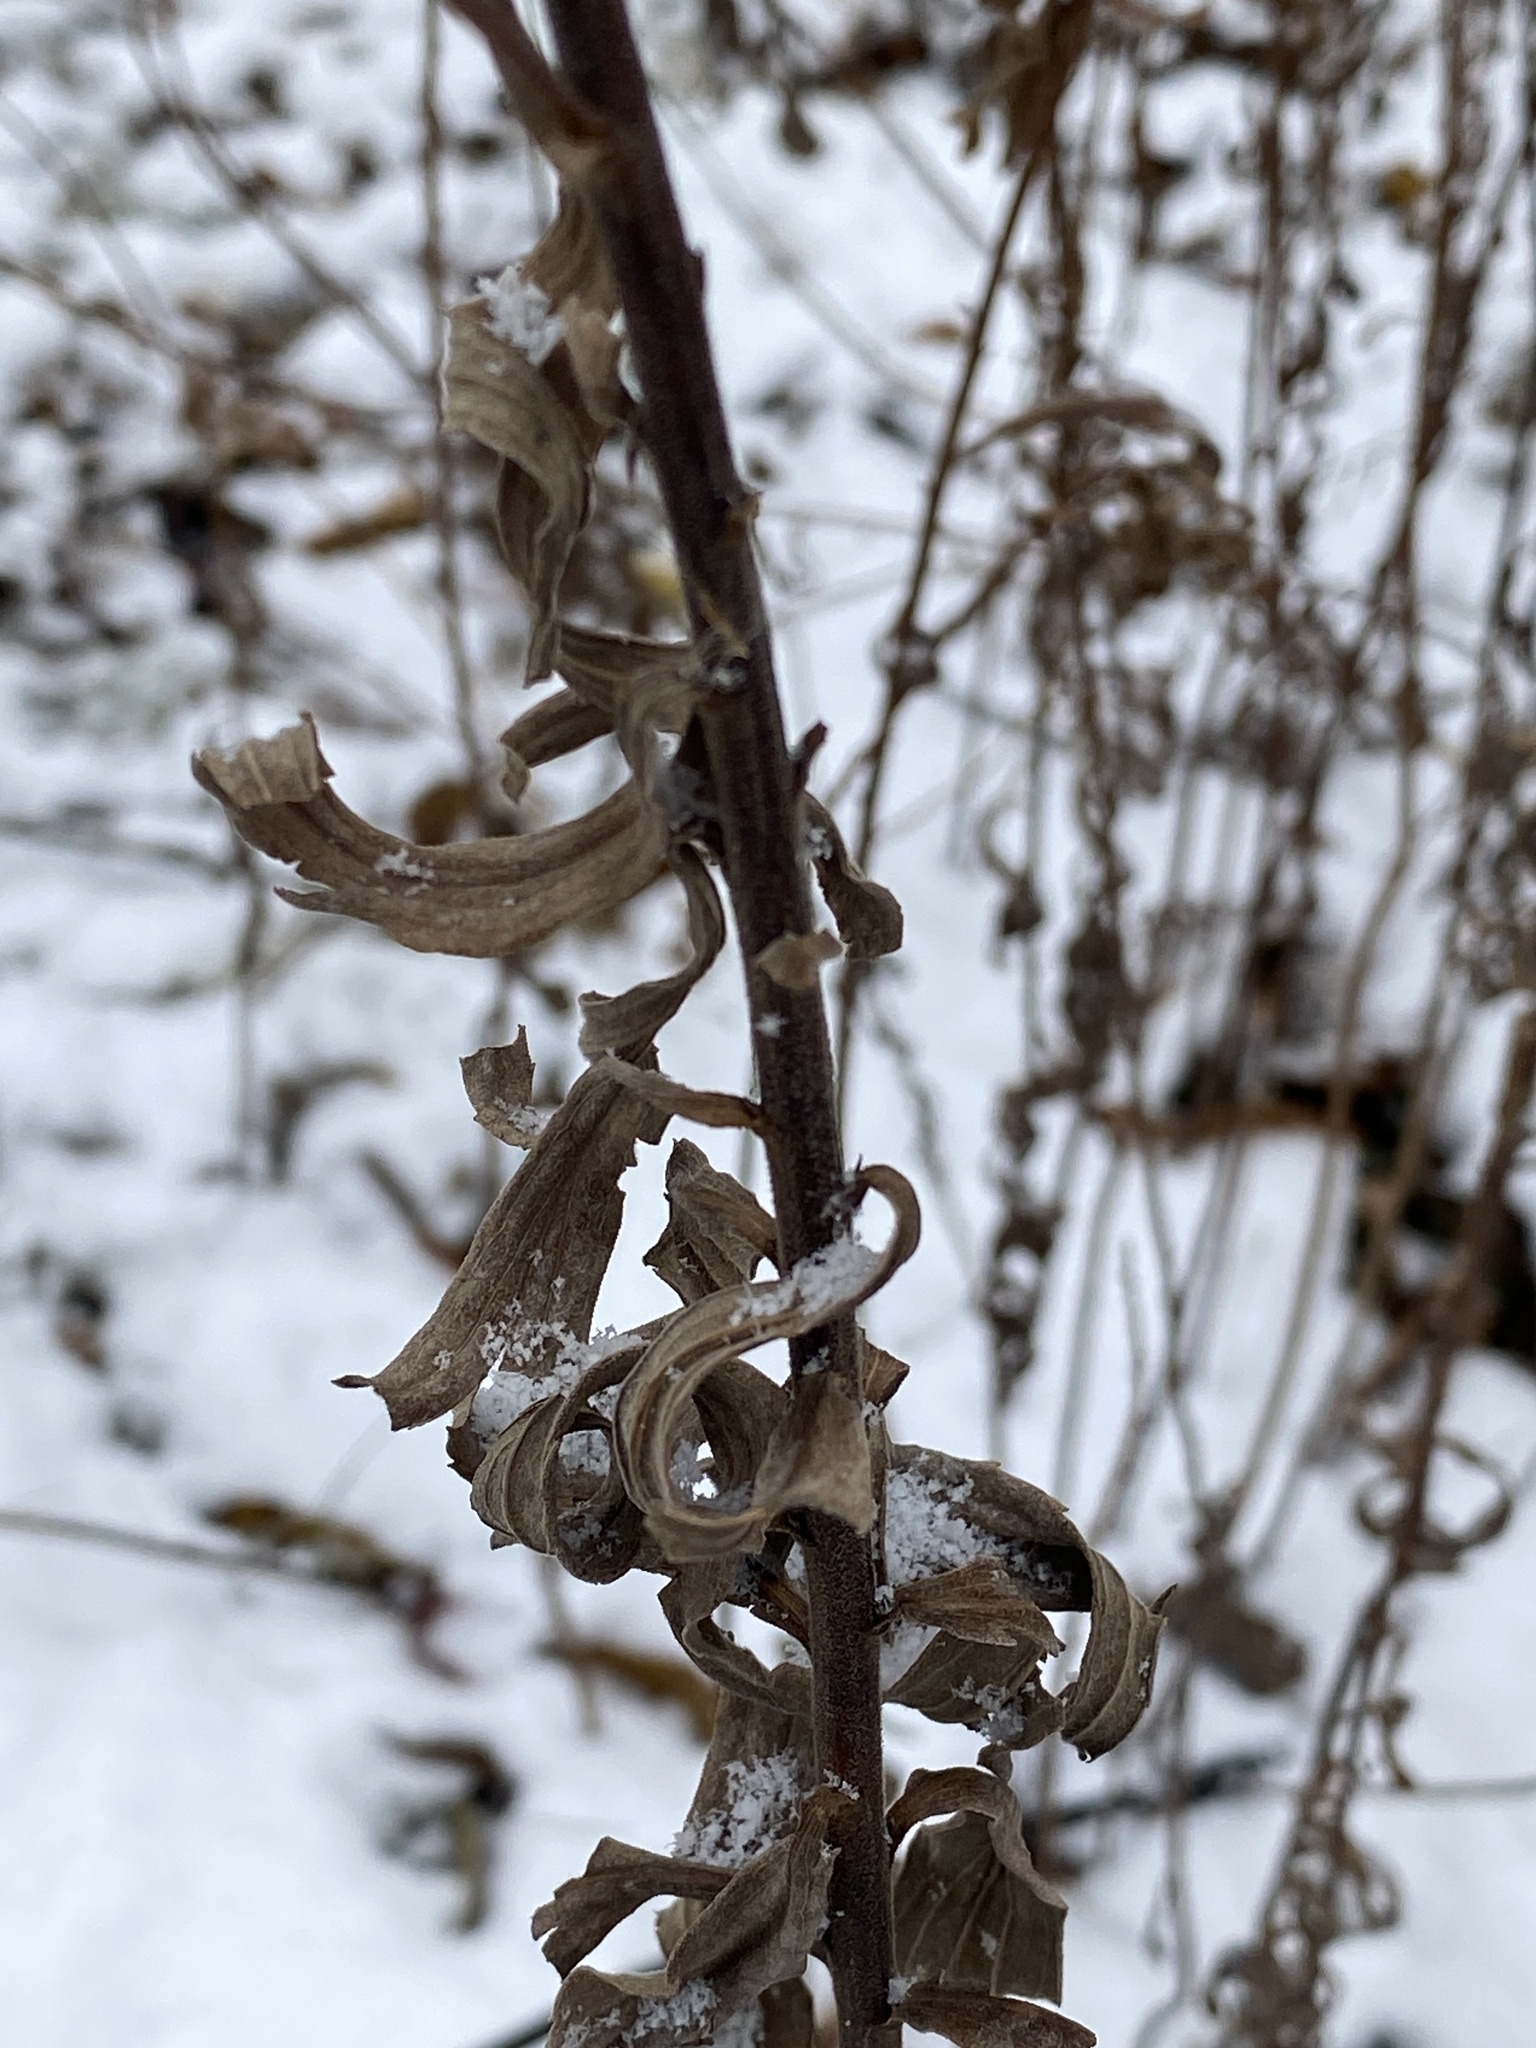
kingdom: Plantae
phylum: Tracheophyta
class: Magnoliopsida
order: Asterales
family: Asteraceae
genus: Solidago
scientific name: Solidago altissima
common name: Late goldenrod
